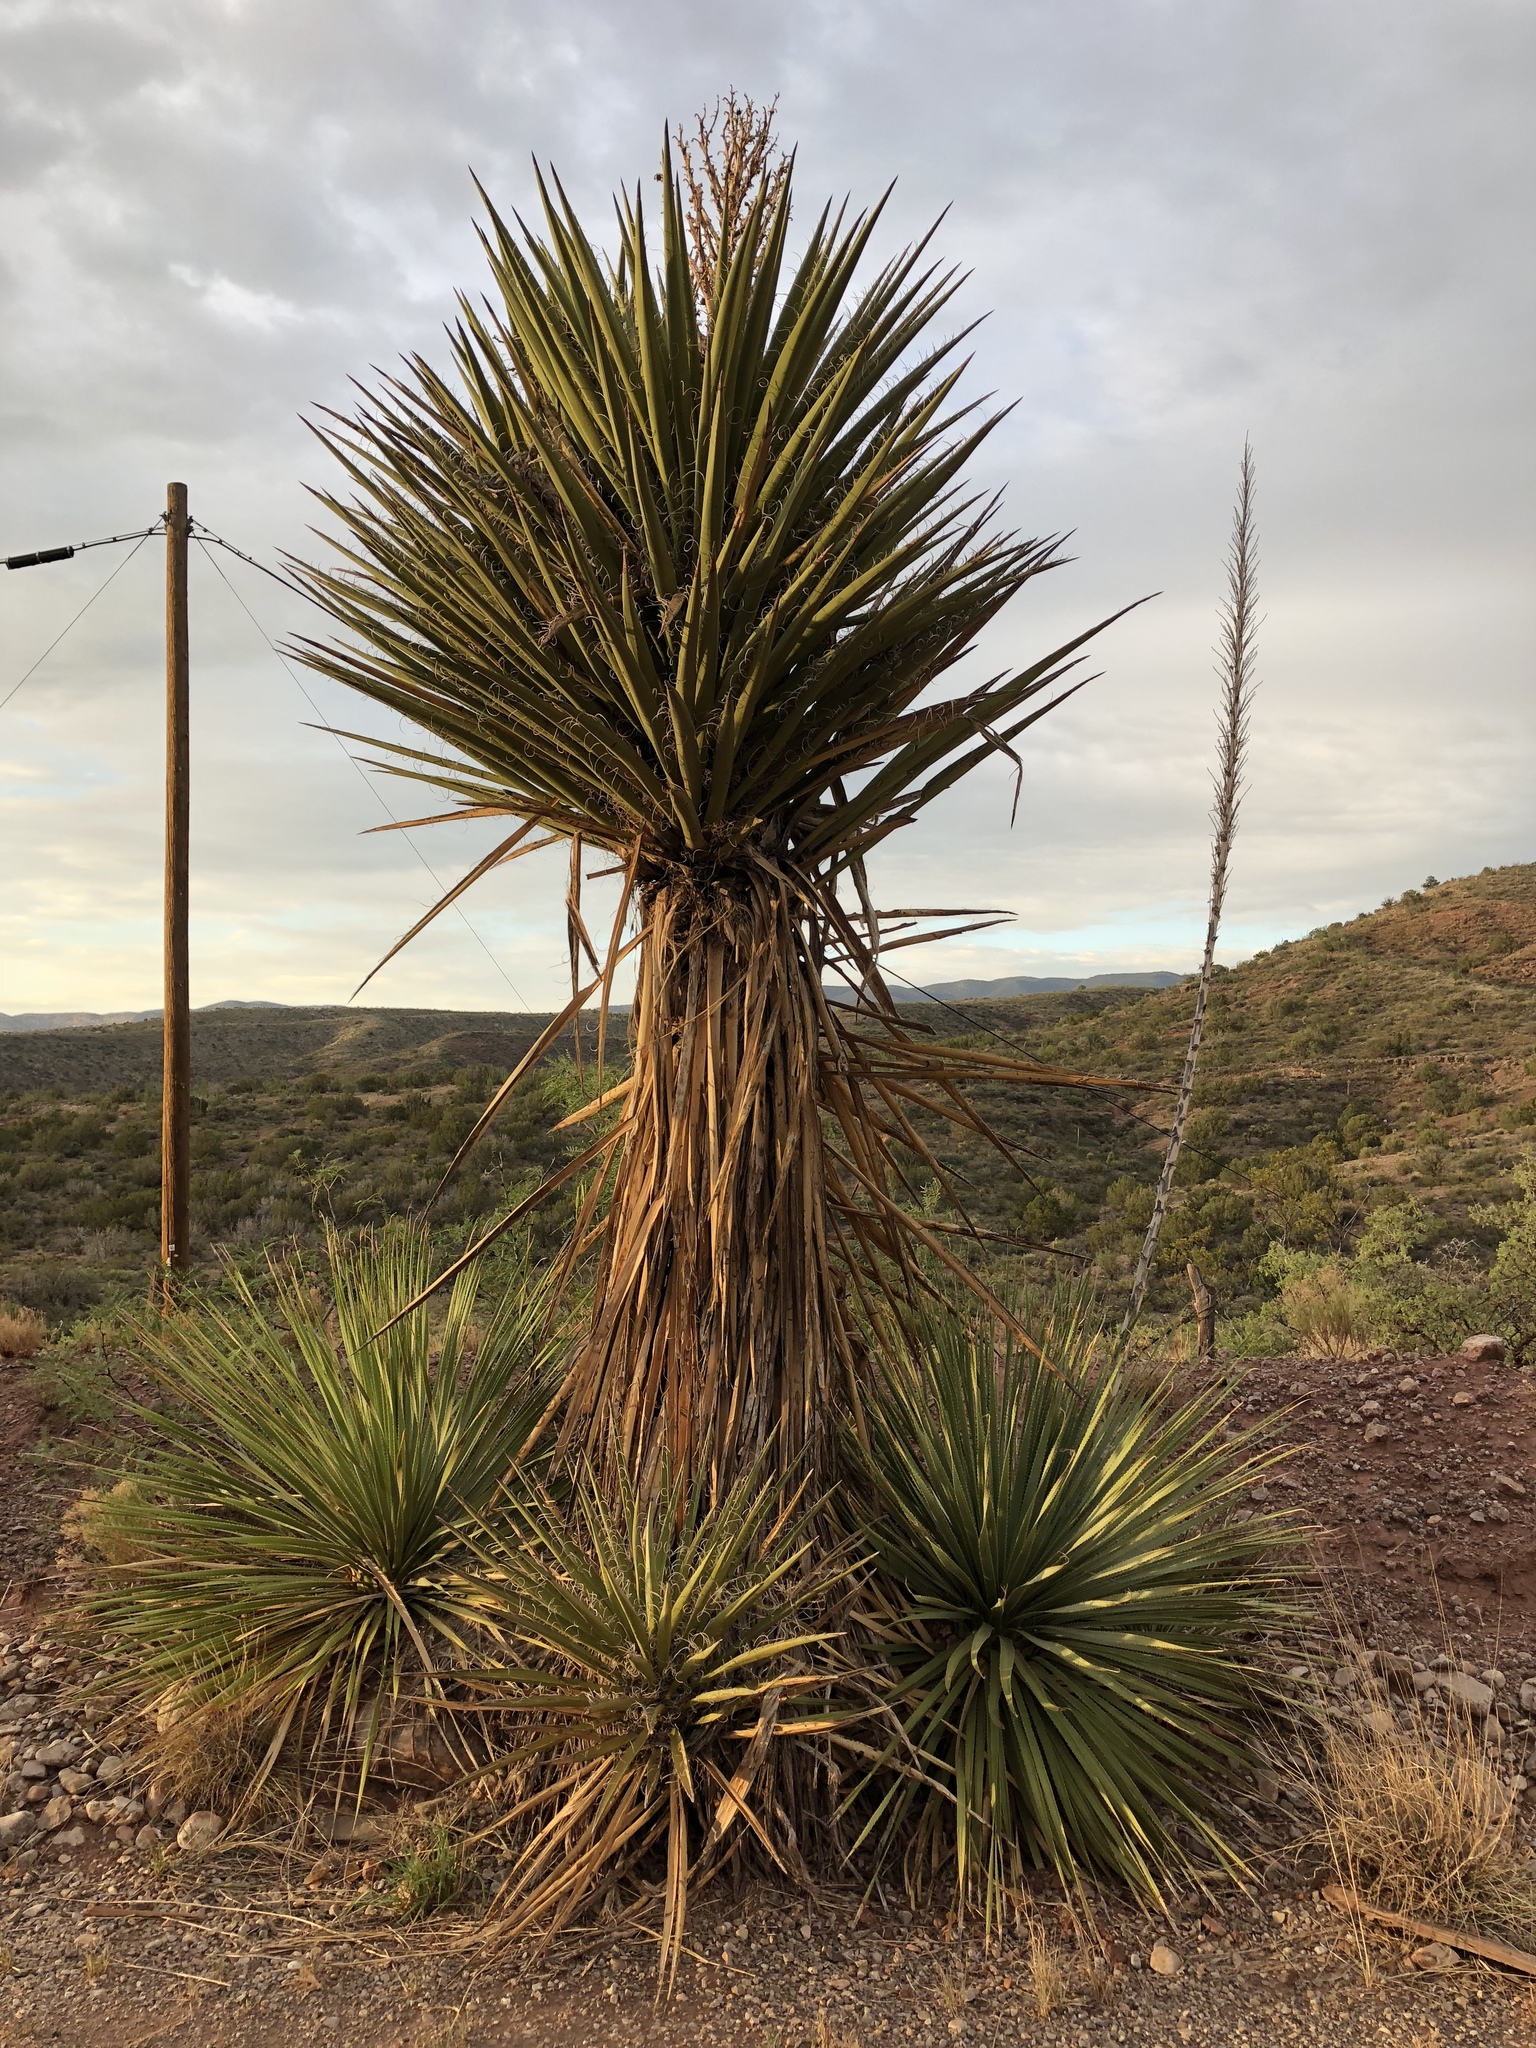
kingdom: Plantae
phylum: Tracheophyta
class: Liliopsida
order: Asparagales
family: Asparagaceae
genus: Yucca
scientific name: Yucca treculiana
